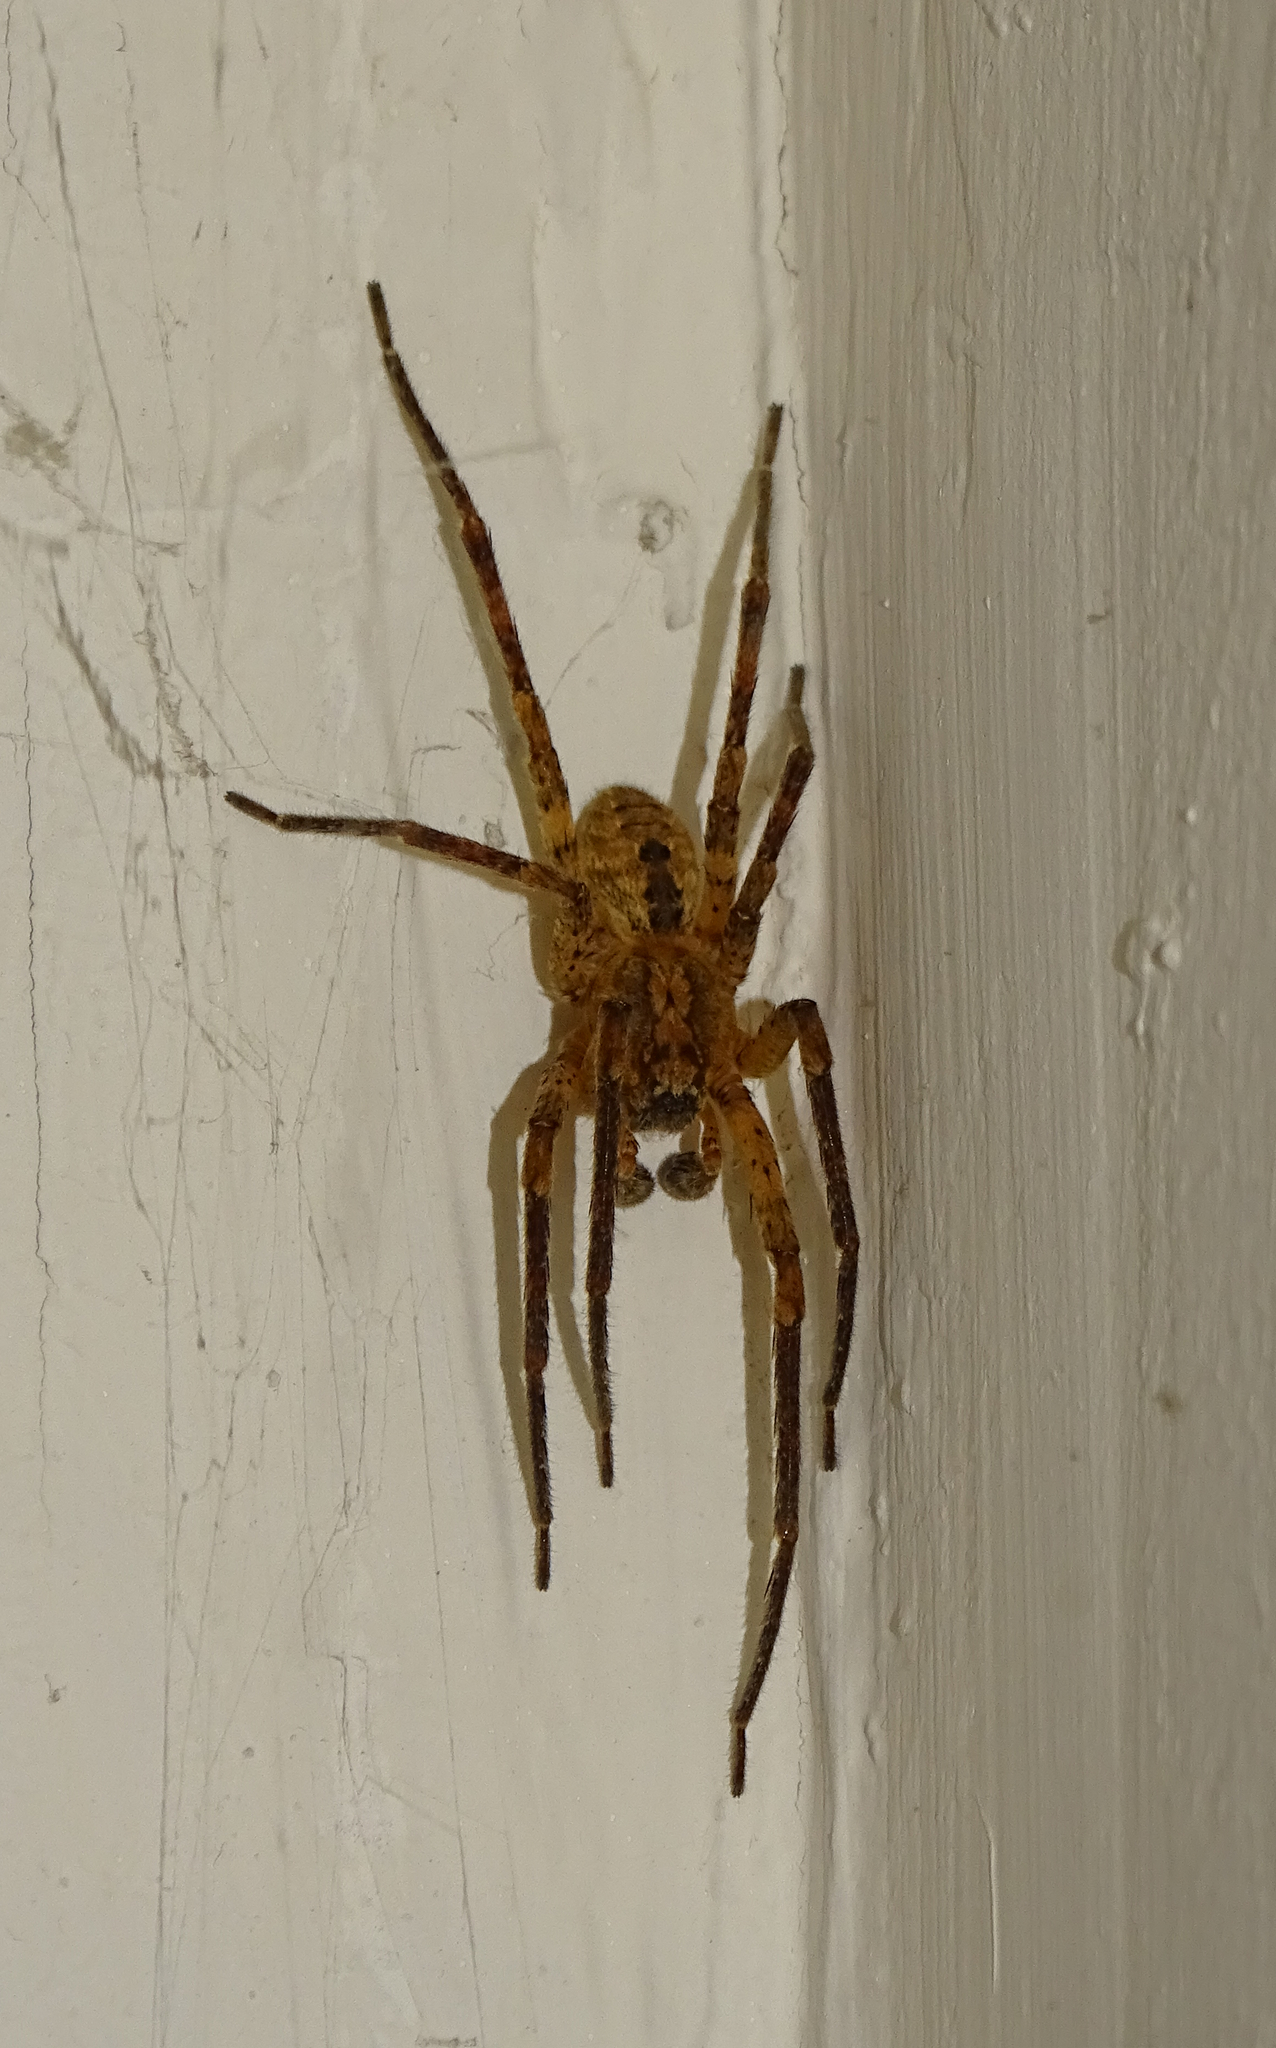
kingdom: Animalia
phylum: Arthropoda
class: Arachnida
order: Araneae
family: Zoropsidae
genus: Zoropsis
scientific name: Zoropsis spinimana
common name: Zoropsid spider
